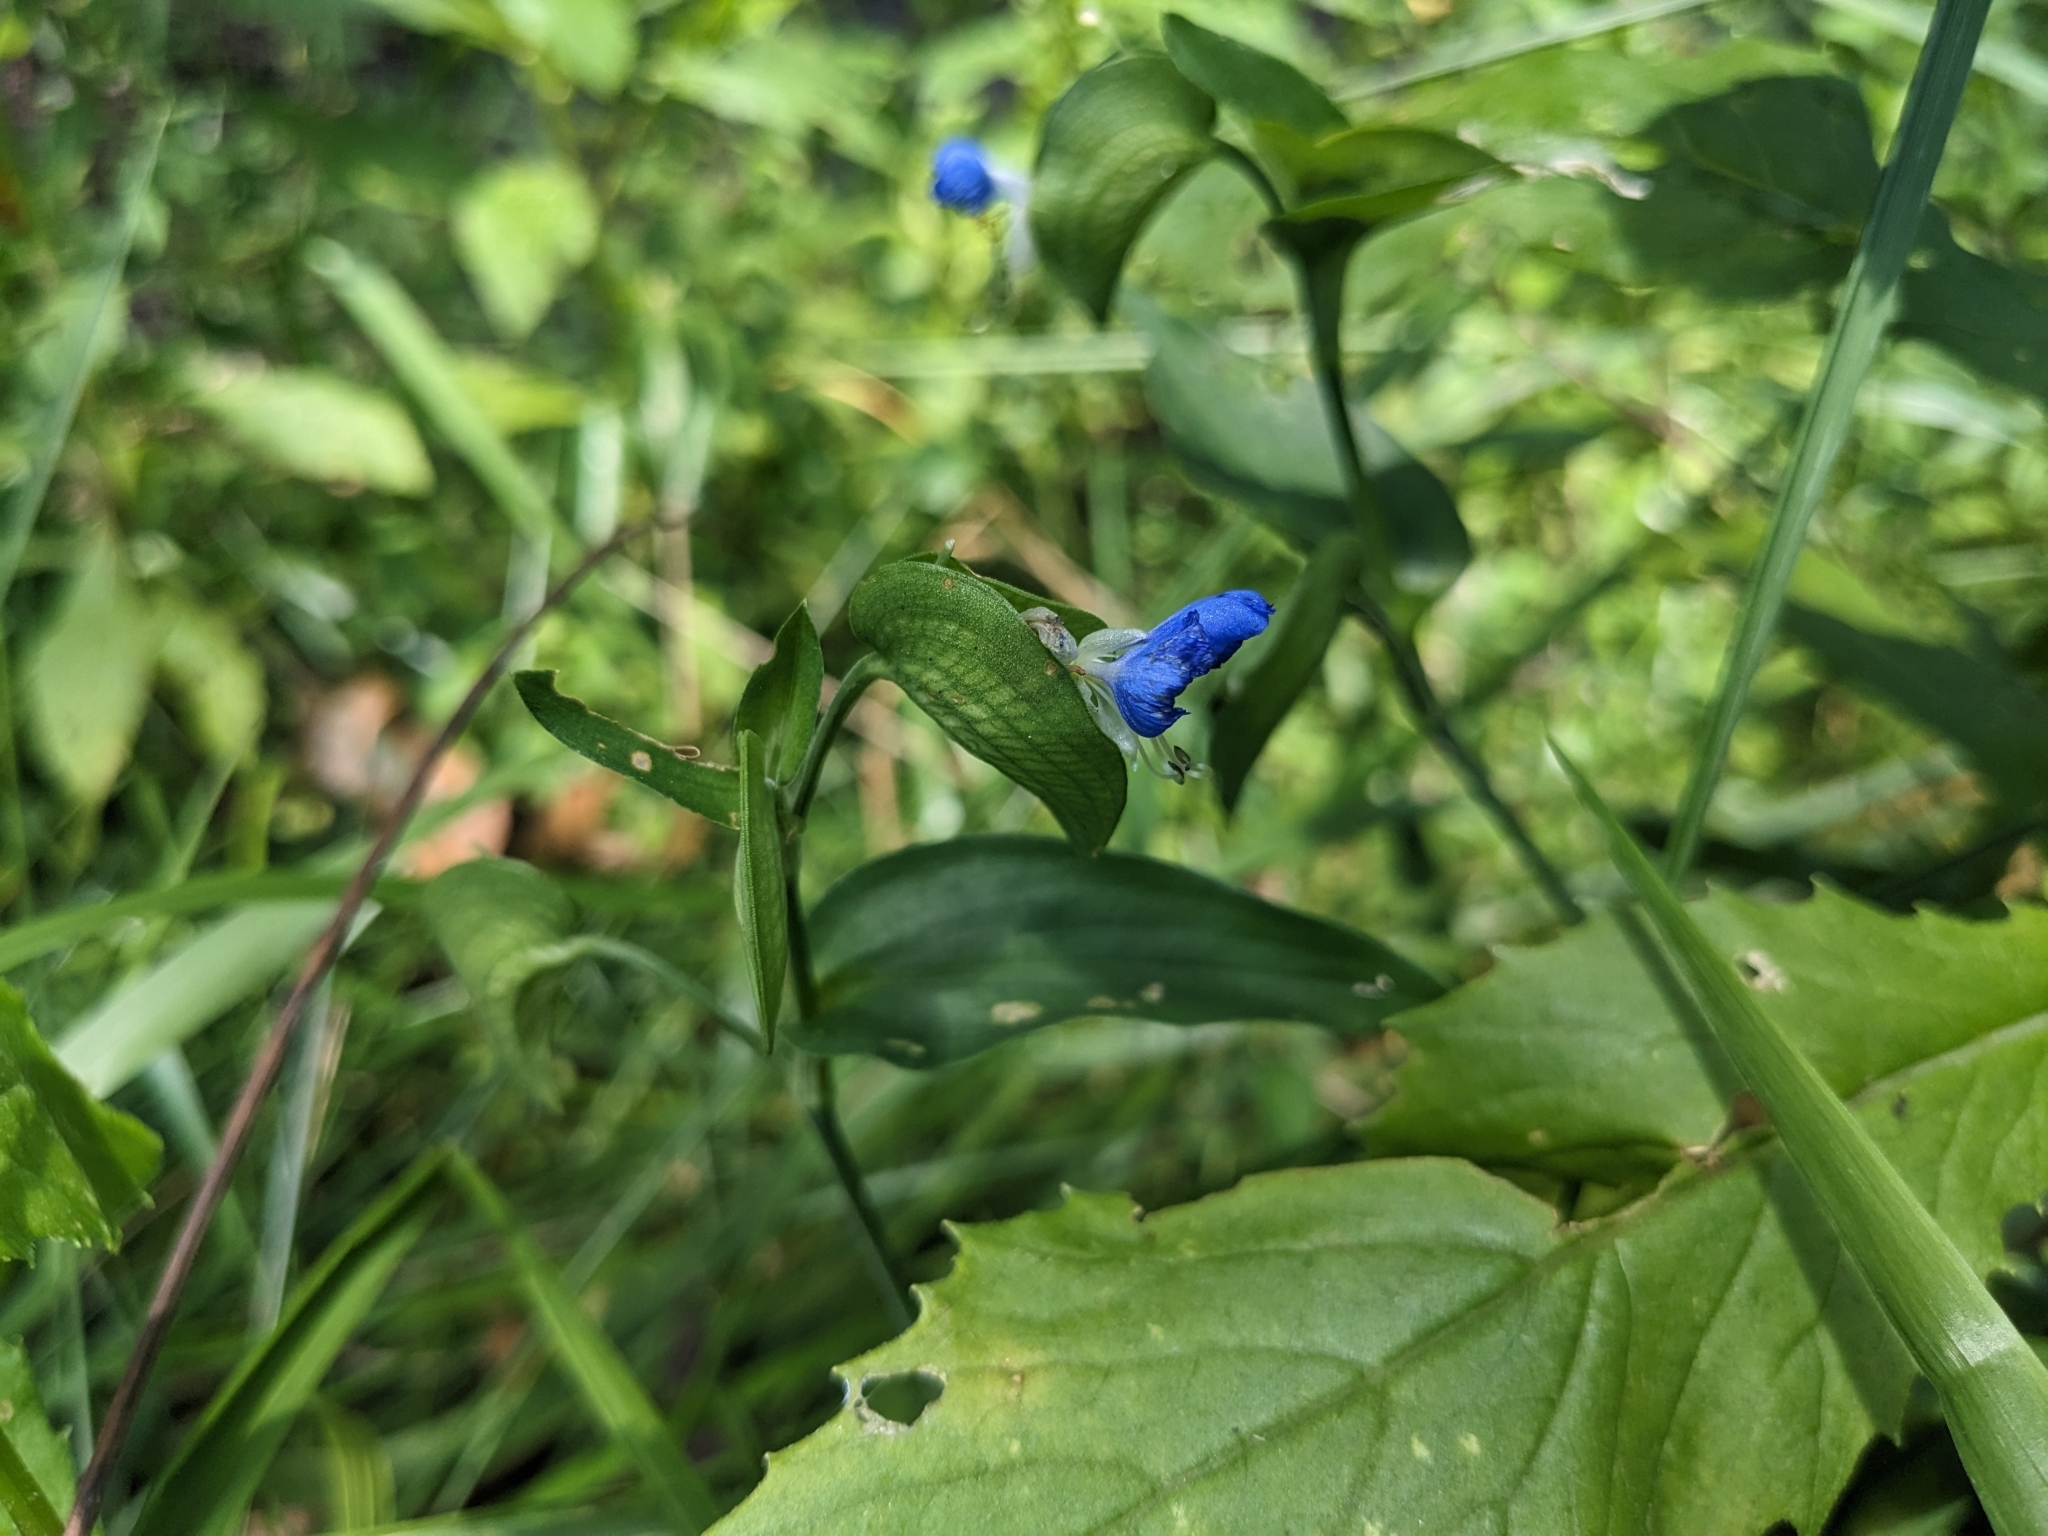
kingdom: Plantae
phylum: Tracheophyta
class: Liliopsida
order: Commelinales
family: Commelinaceae
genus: Commelina
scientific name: Commelina communis
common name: Asiatic dayflower
